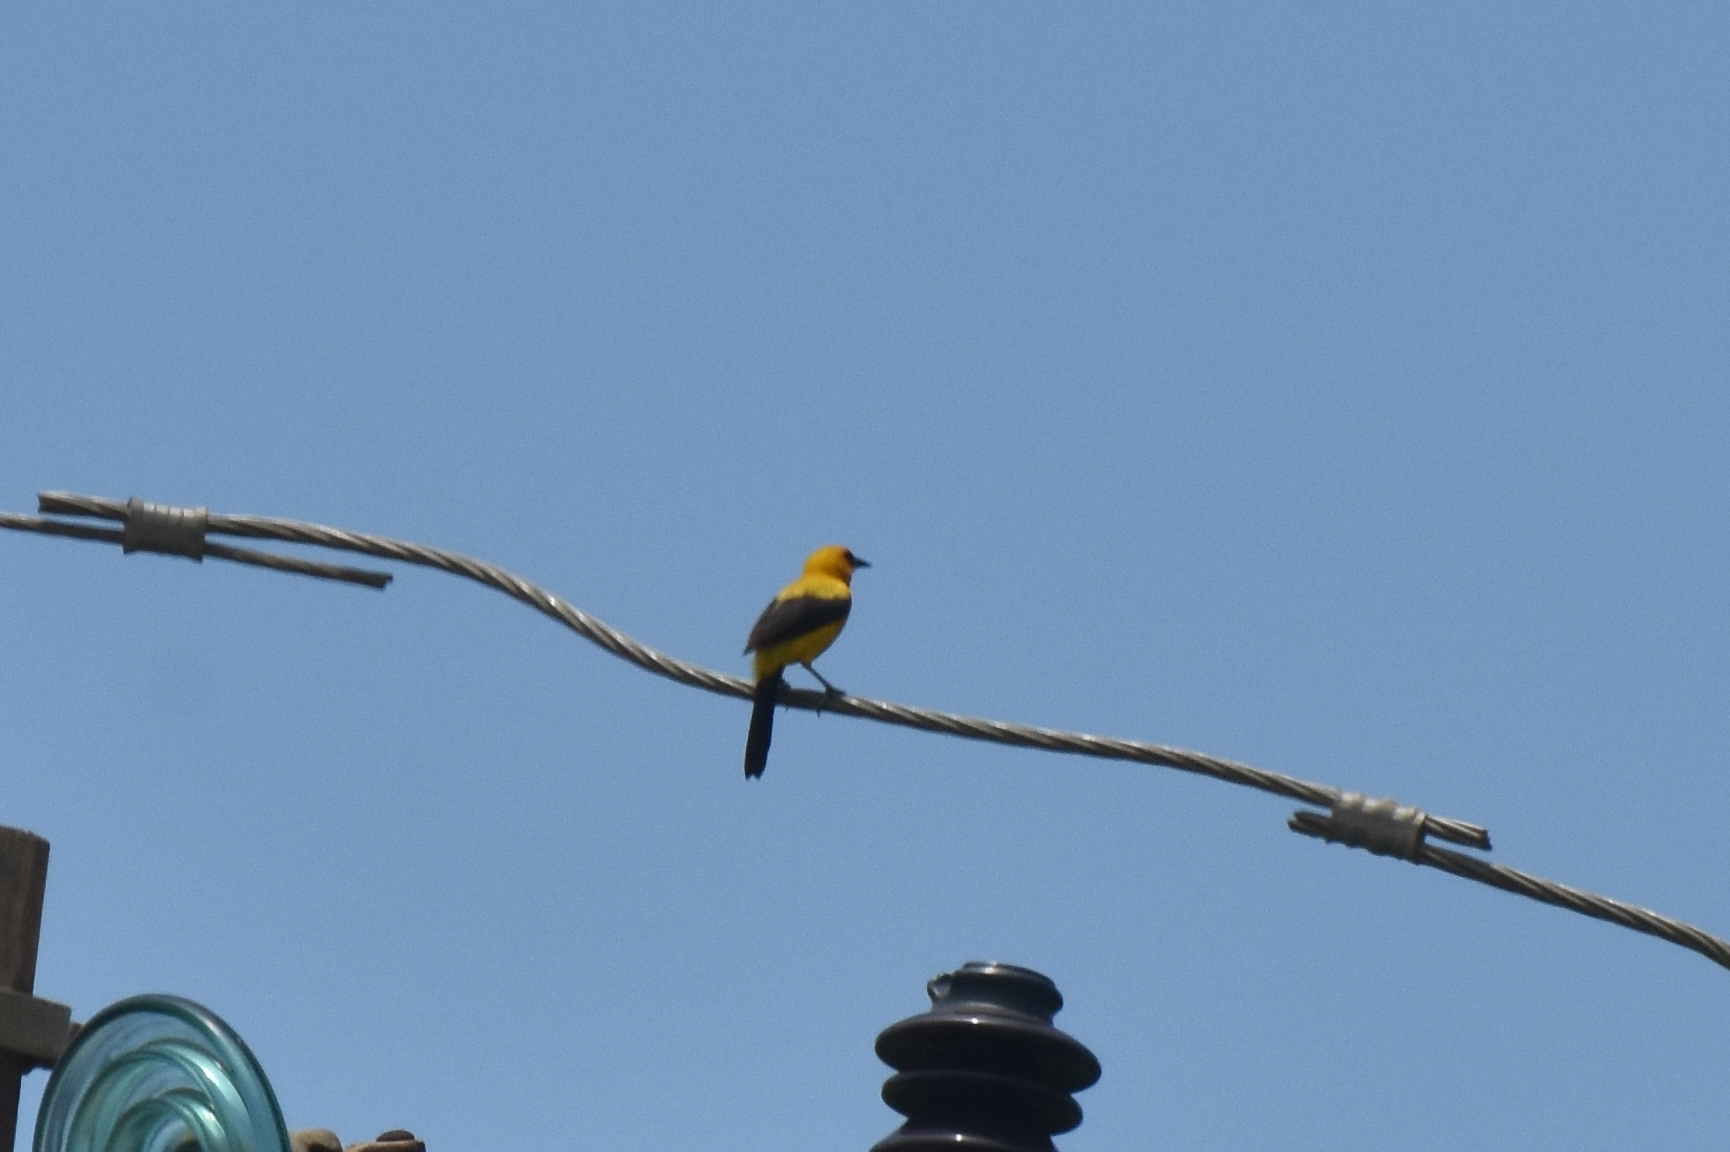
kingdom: Animalia
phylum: Chordata
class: Aves
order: Passeriformes
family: Icteridae
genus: Icterus
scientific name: Icterus nigrogularis
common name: Yellow oriole
